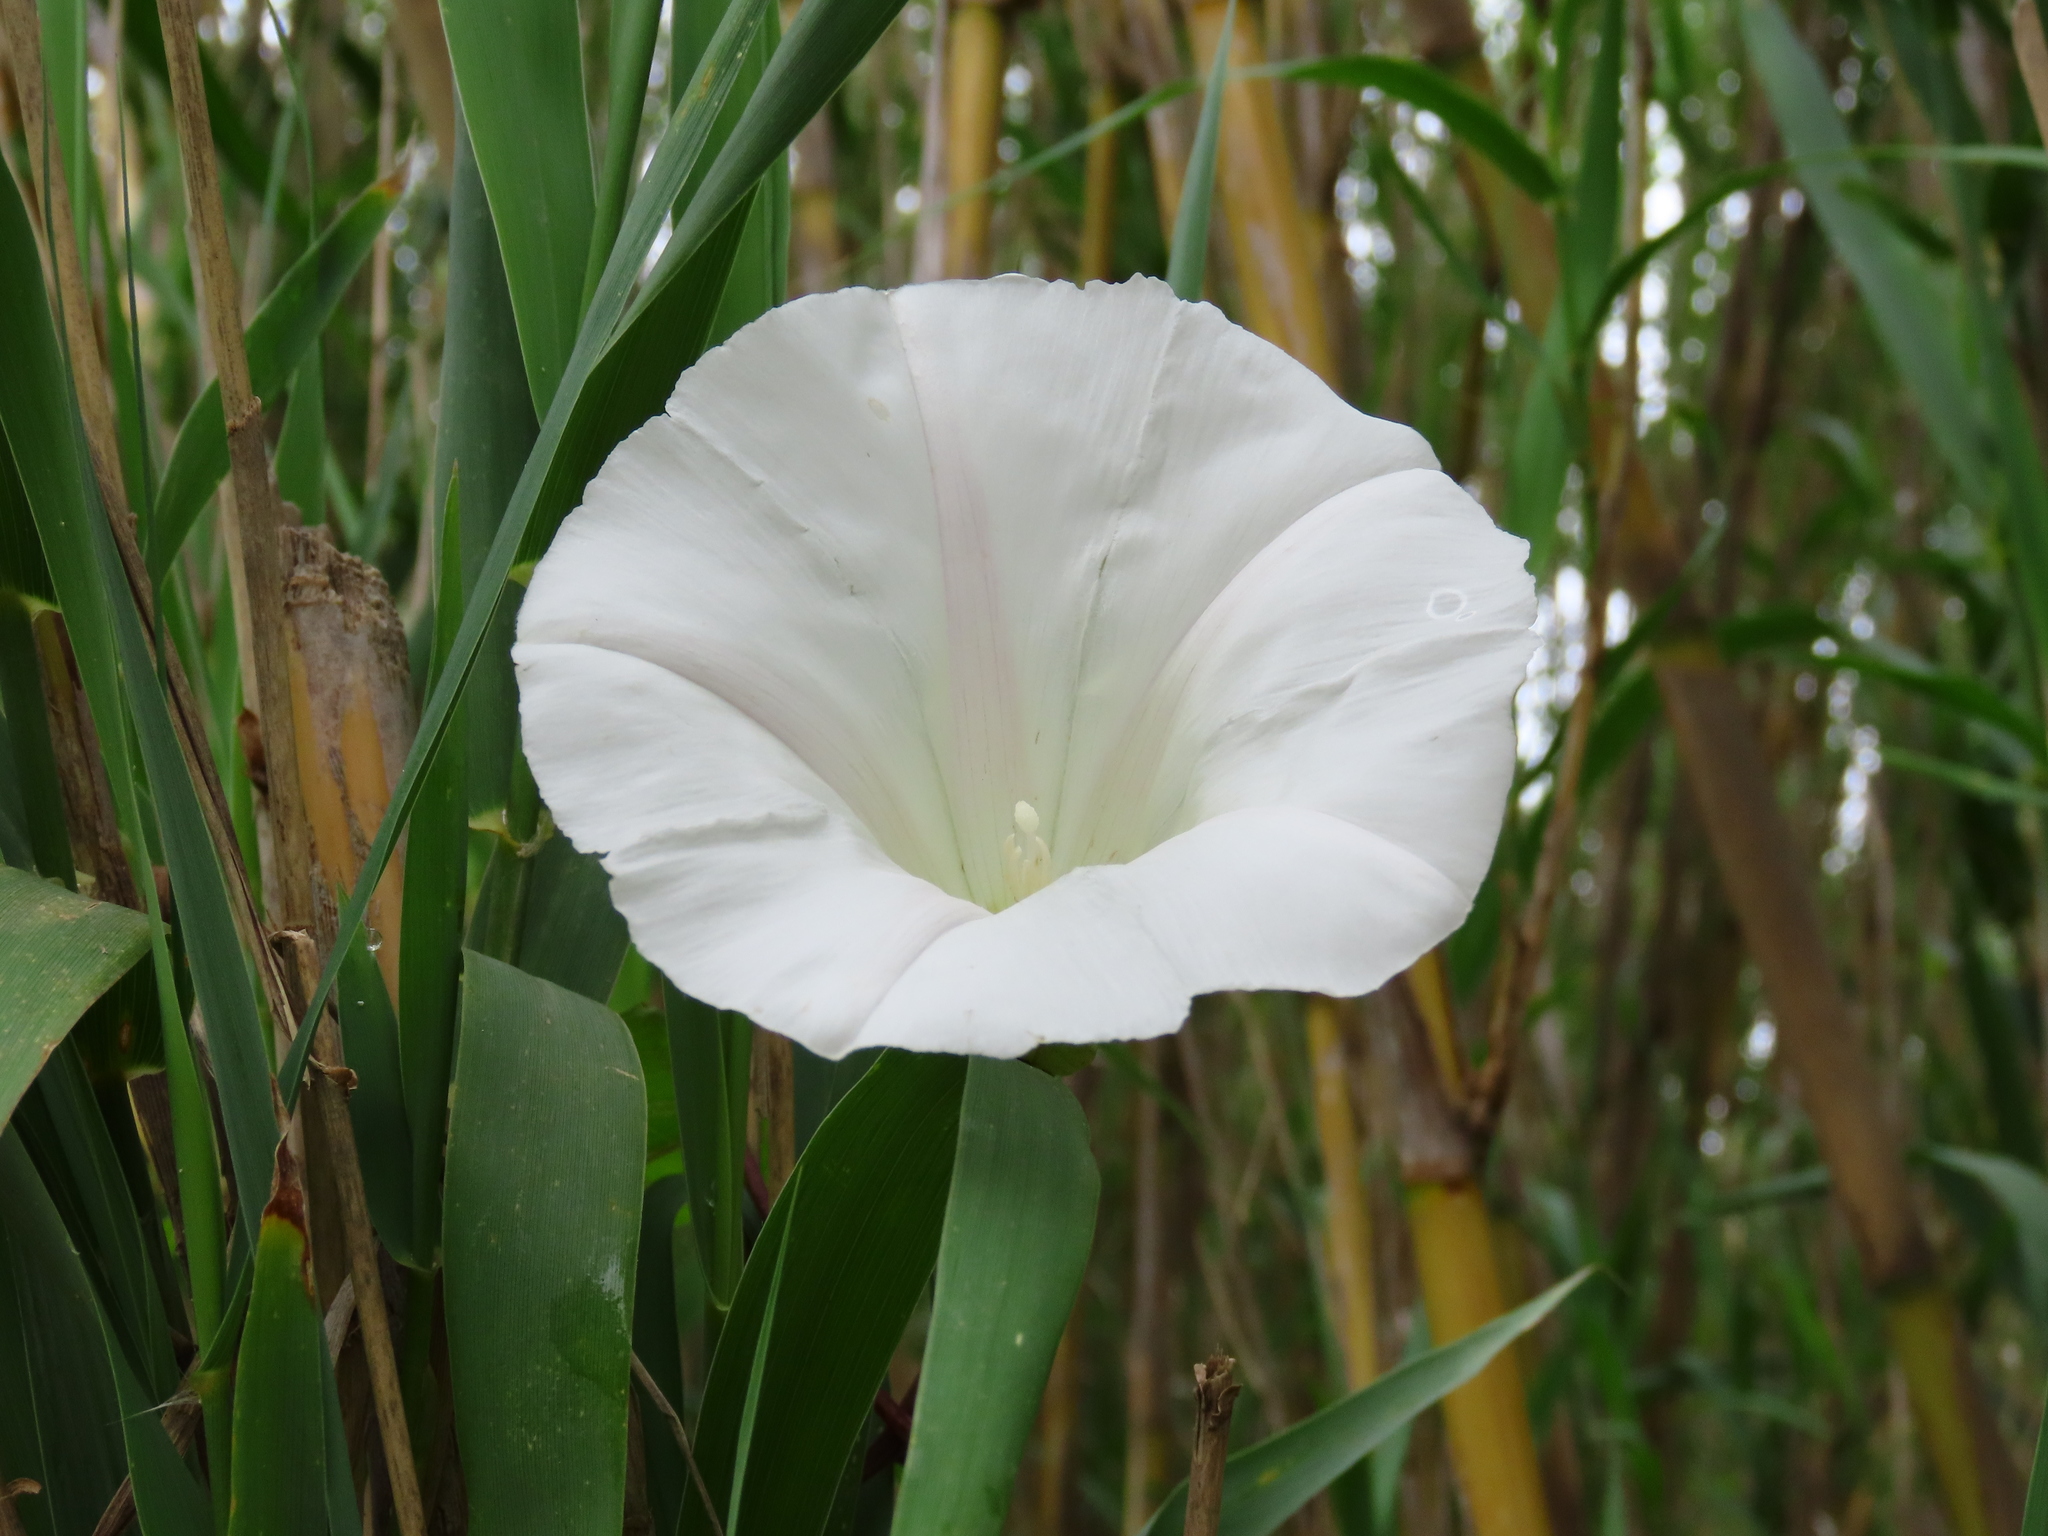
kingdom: Plantae
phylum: Tracheophyta
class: Magnoliopsida
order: Solanales
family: Convolvulaceae
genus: Calystegia
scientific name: Calystegia silvatica
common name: Large bindweed
